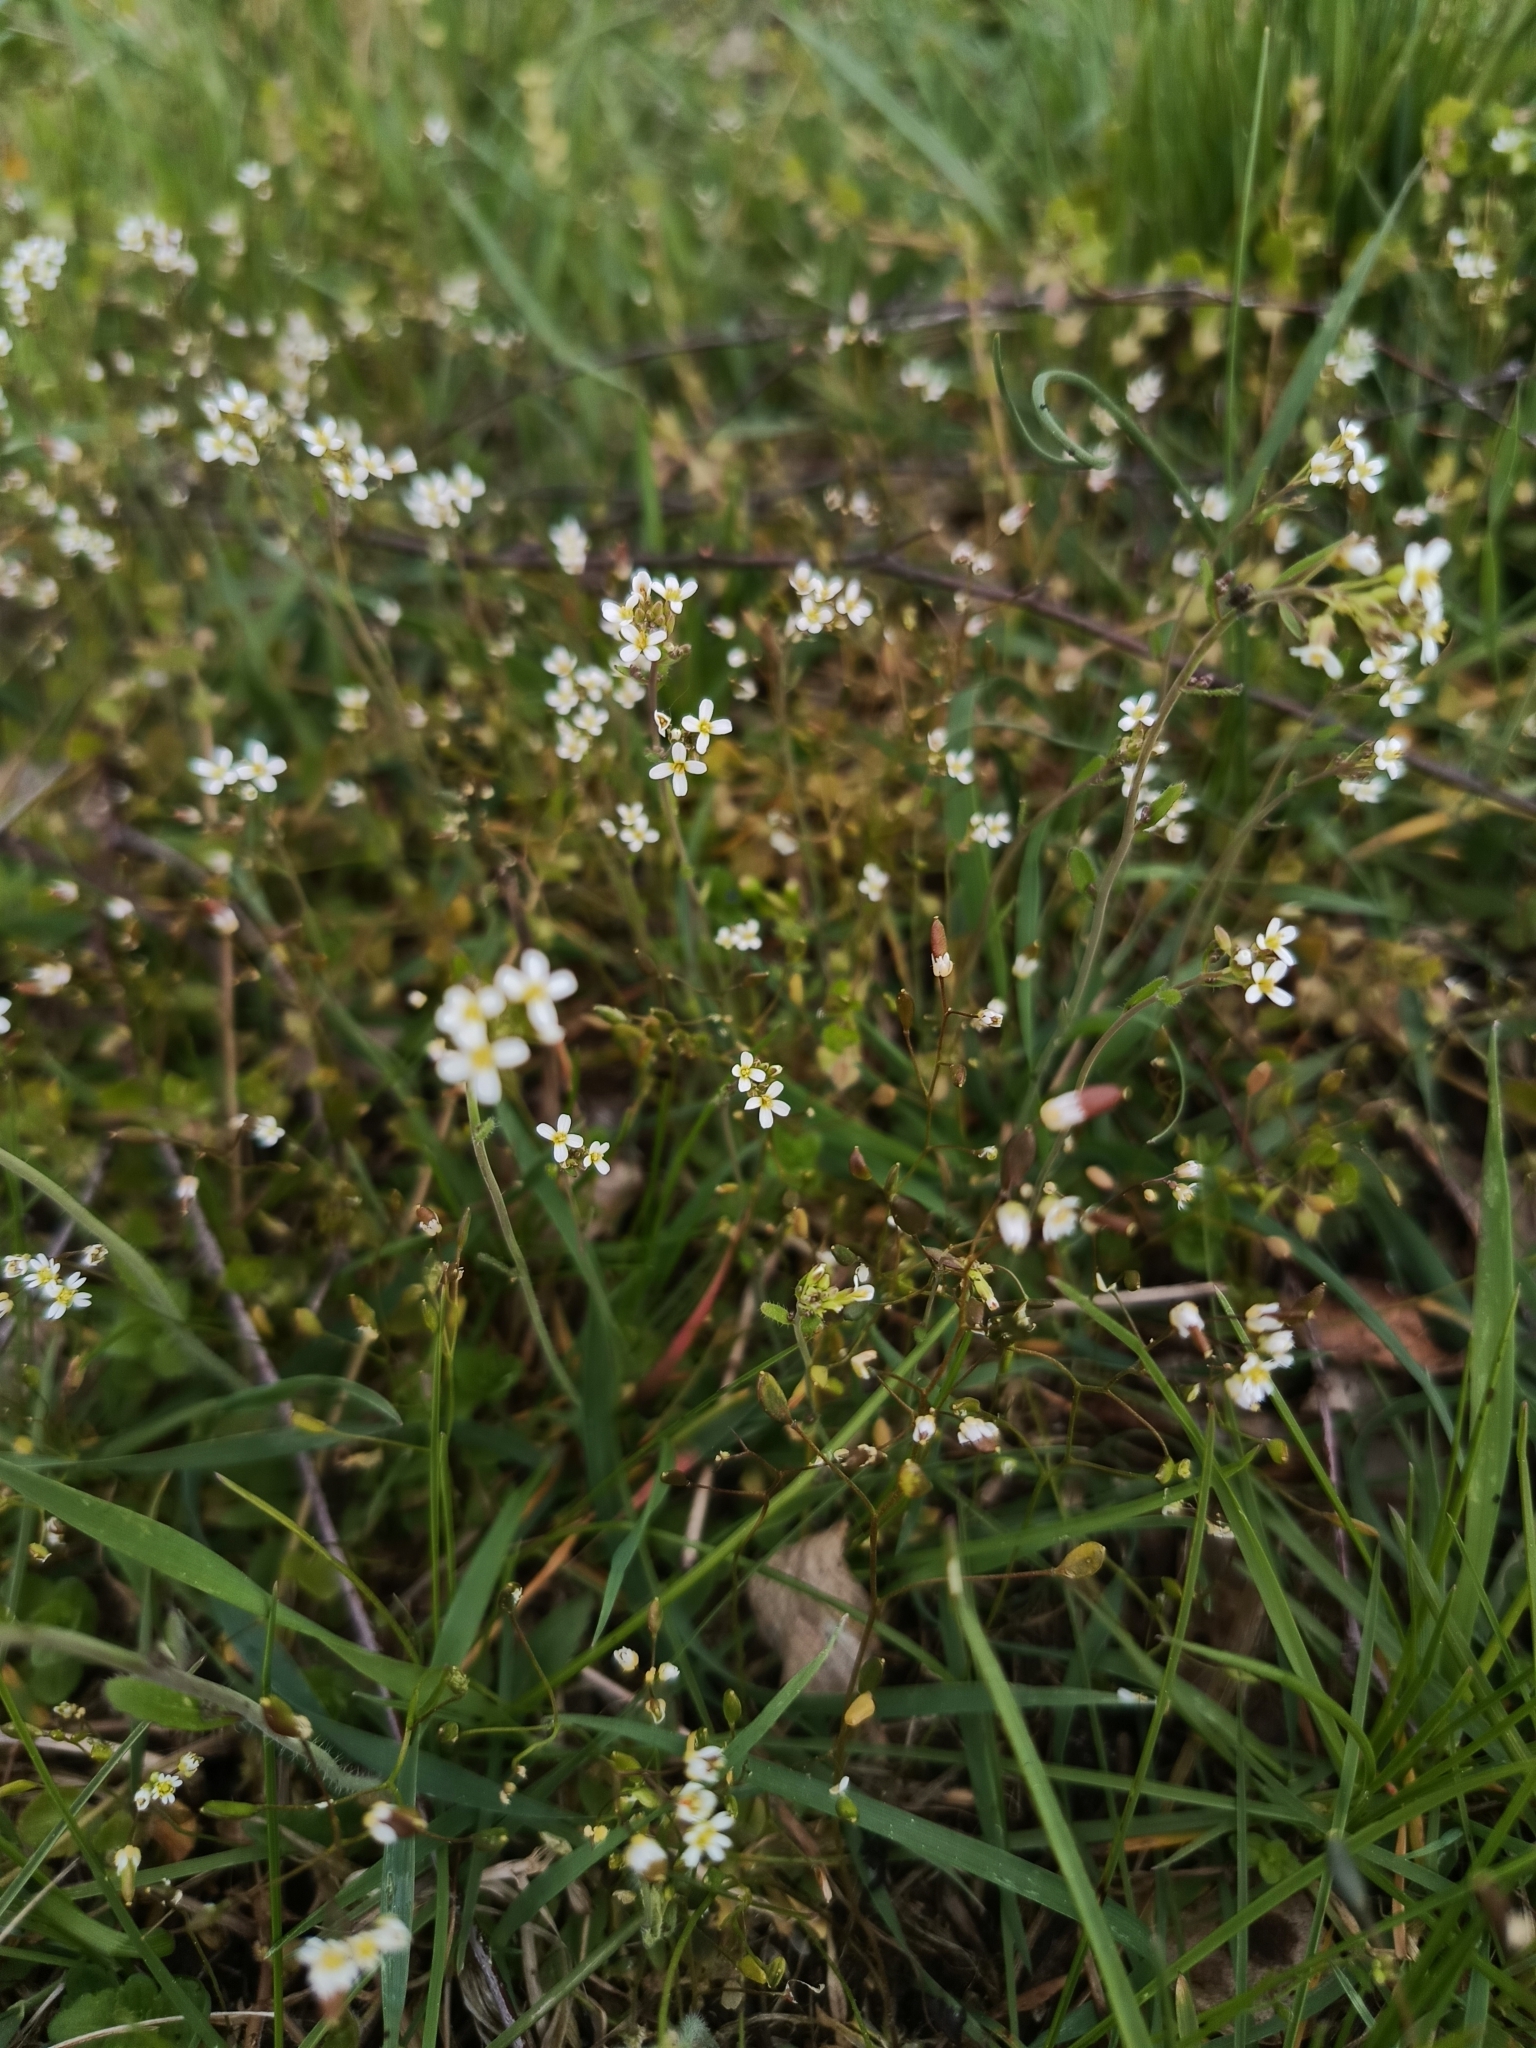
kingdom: Plantae
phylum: Tracheophyta
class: Magnoliopsida
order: Brassicales
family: Brassicaceae
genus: Arabidopsis
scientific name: Arabidopsis thaliana
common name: Thale cress
